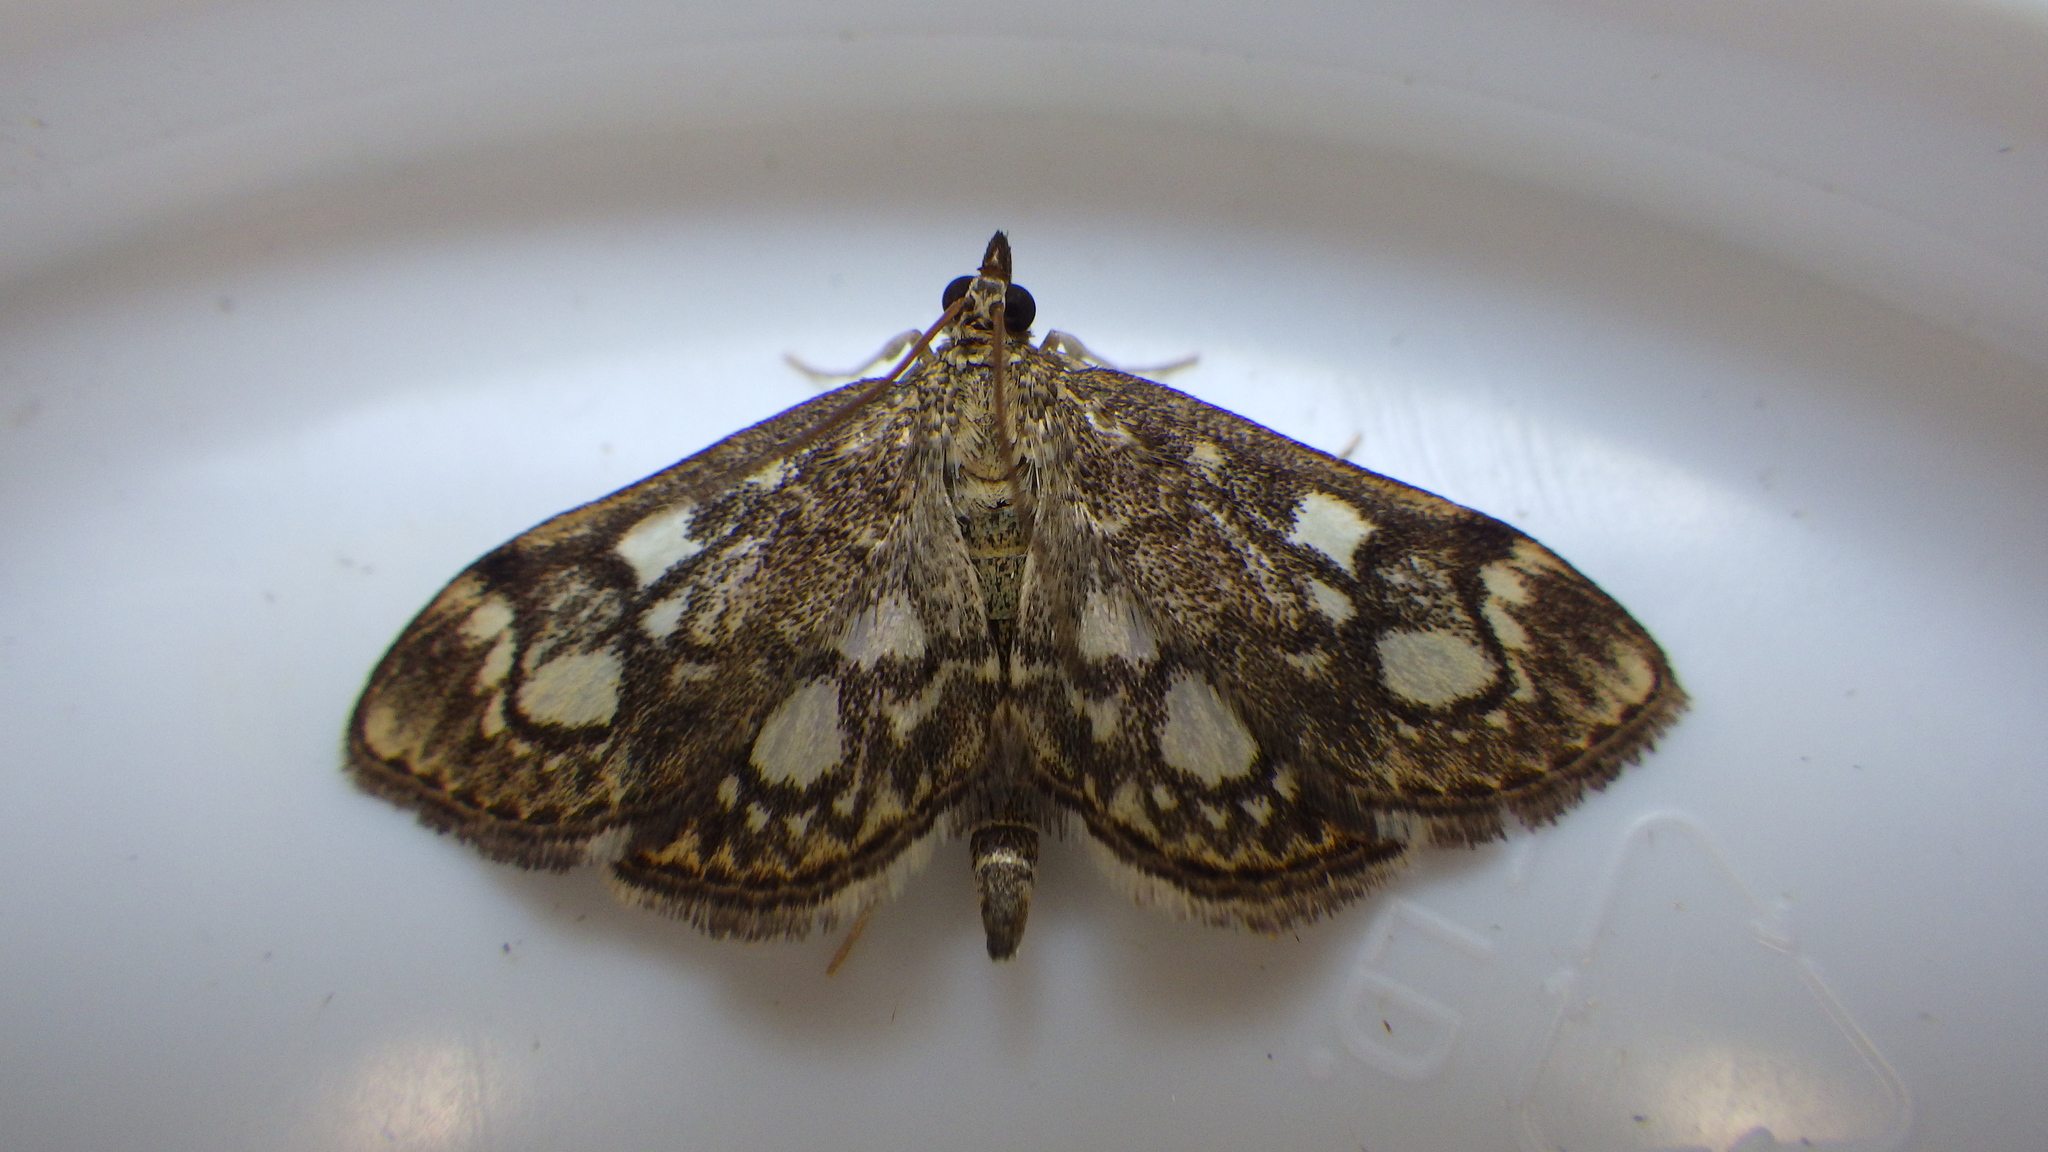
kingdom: Animalia
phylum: Arthropoda
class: Insecta
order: Lepidoptera
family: Crambidae
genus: Anania
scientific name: Anania coronata
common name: Elder pearl
